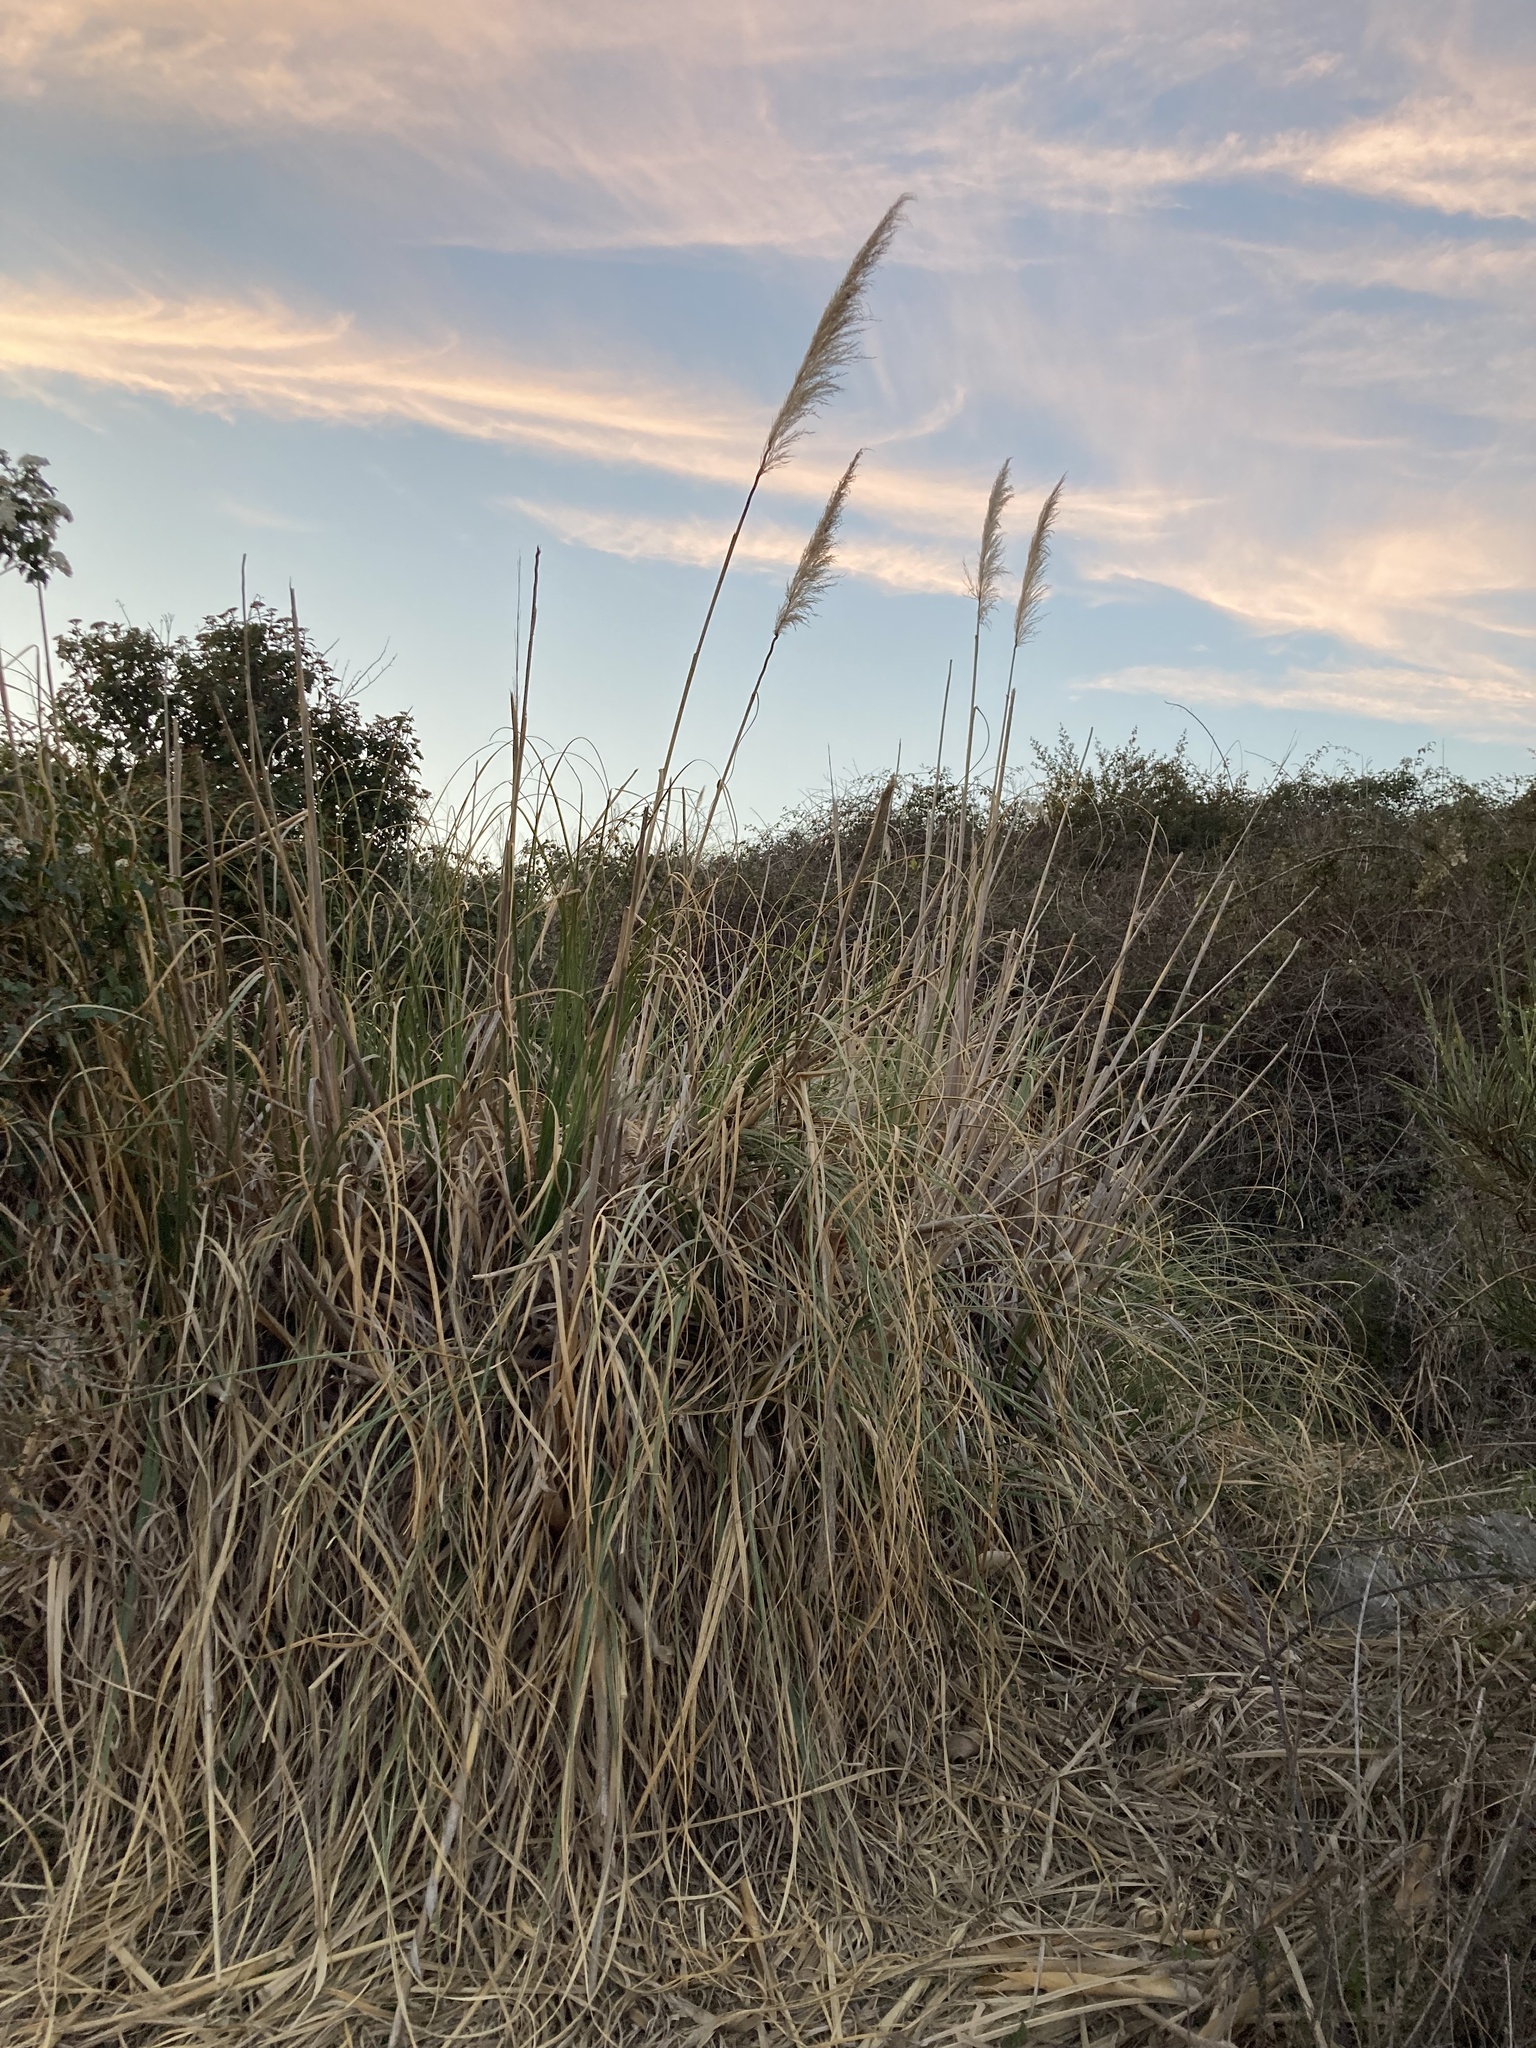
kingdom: Plantae
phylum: Tracheophyta
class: Liliopsida
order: Poales
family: Poaceae
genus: Cortaderia
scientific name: Cortaderia selloana
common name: Uruguayan pampas grass
